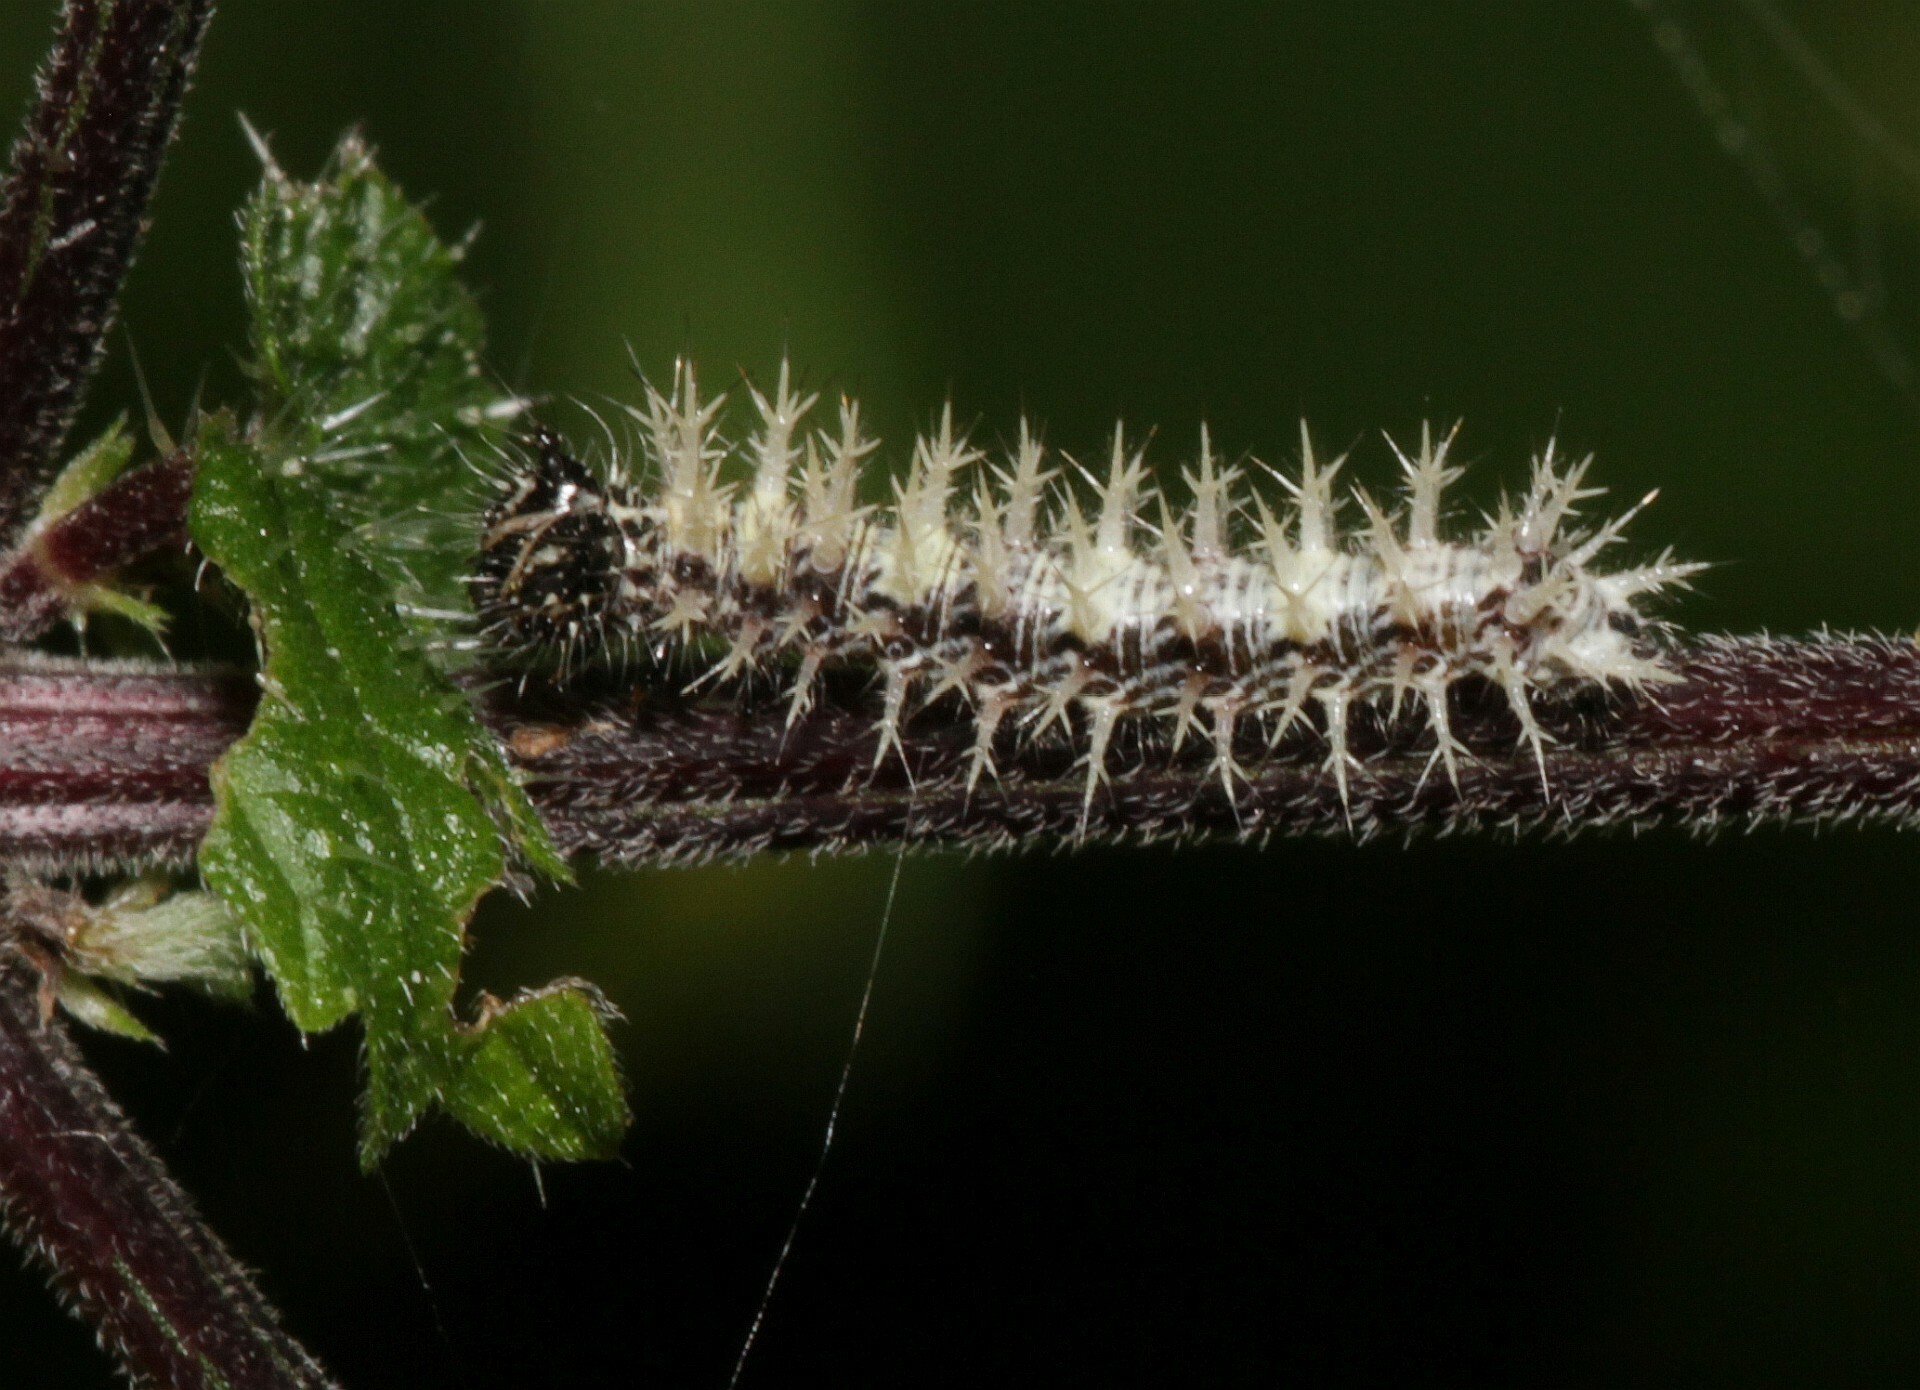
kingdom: Animalia
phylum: Arthropoda
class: Insecta
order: Lepidoptera
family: Nymphalidae
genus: Polygonia
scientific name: Polygonia c-album
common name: Comma
